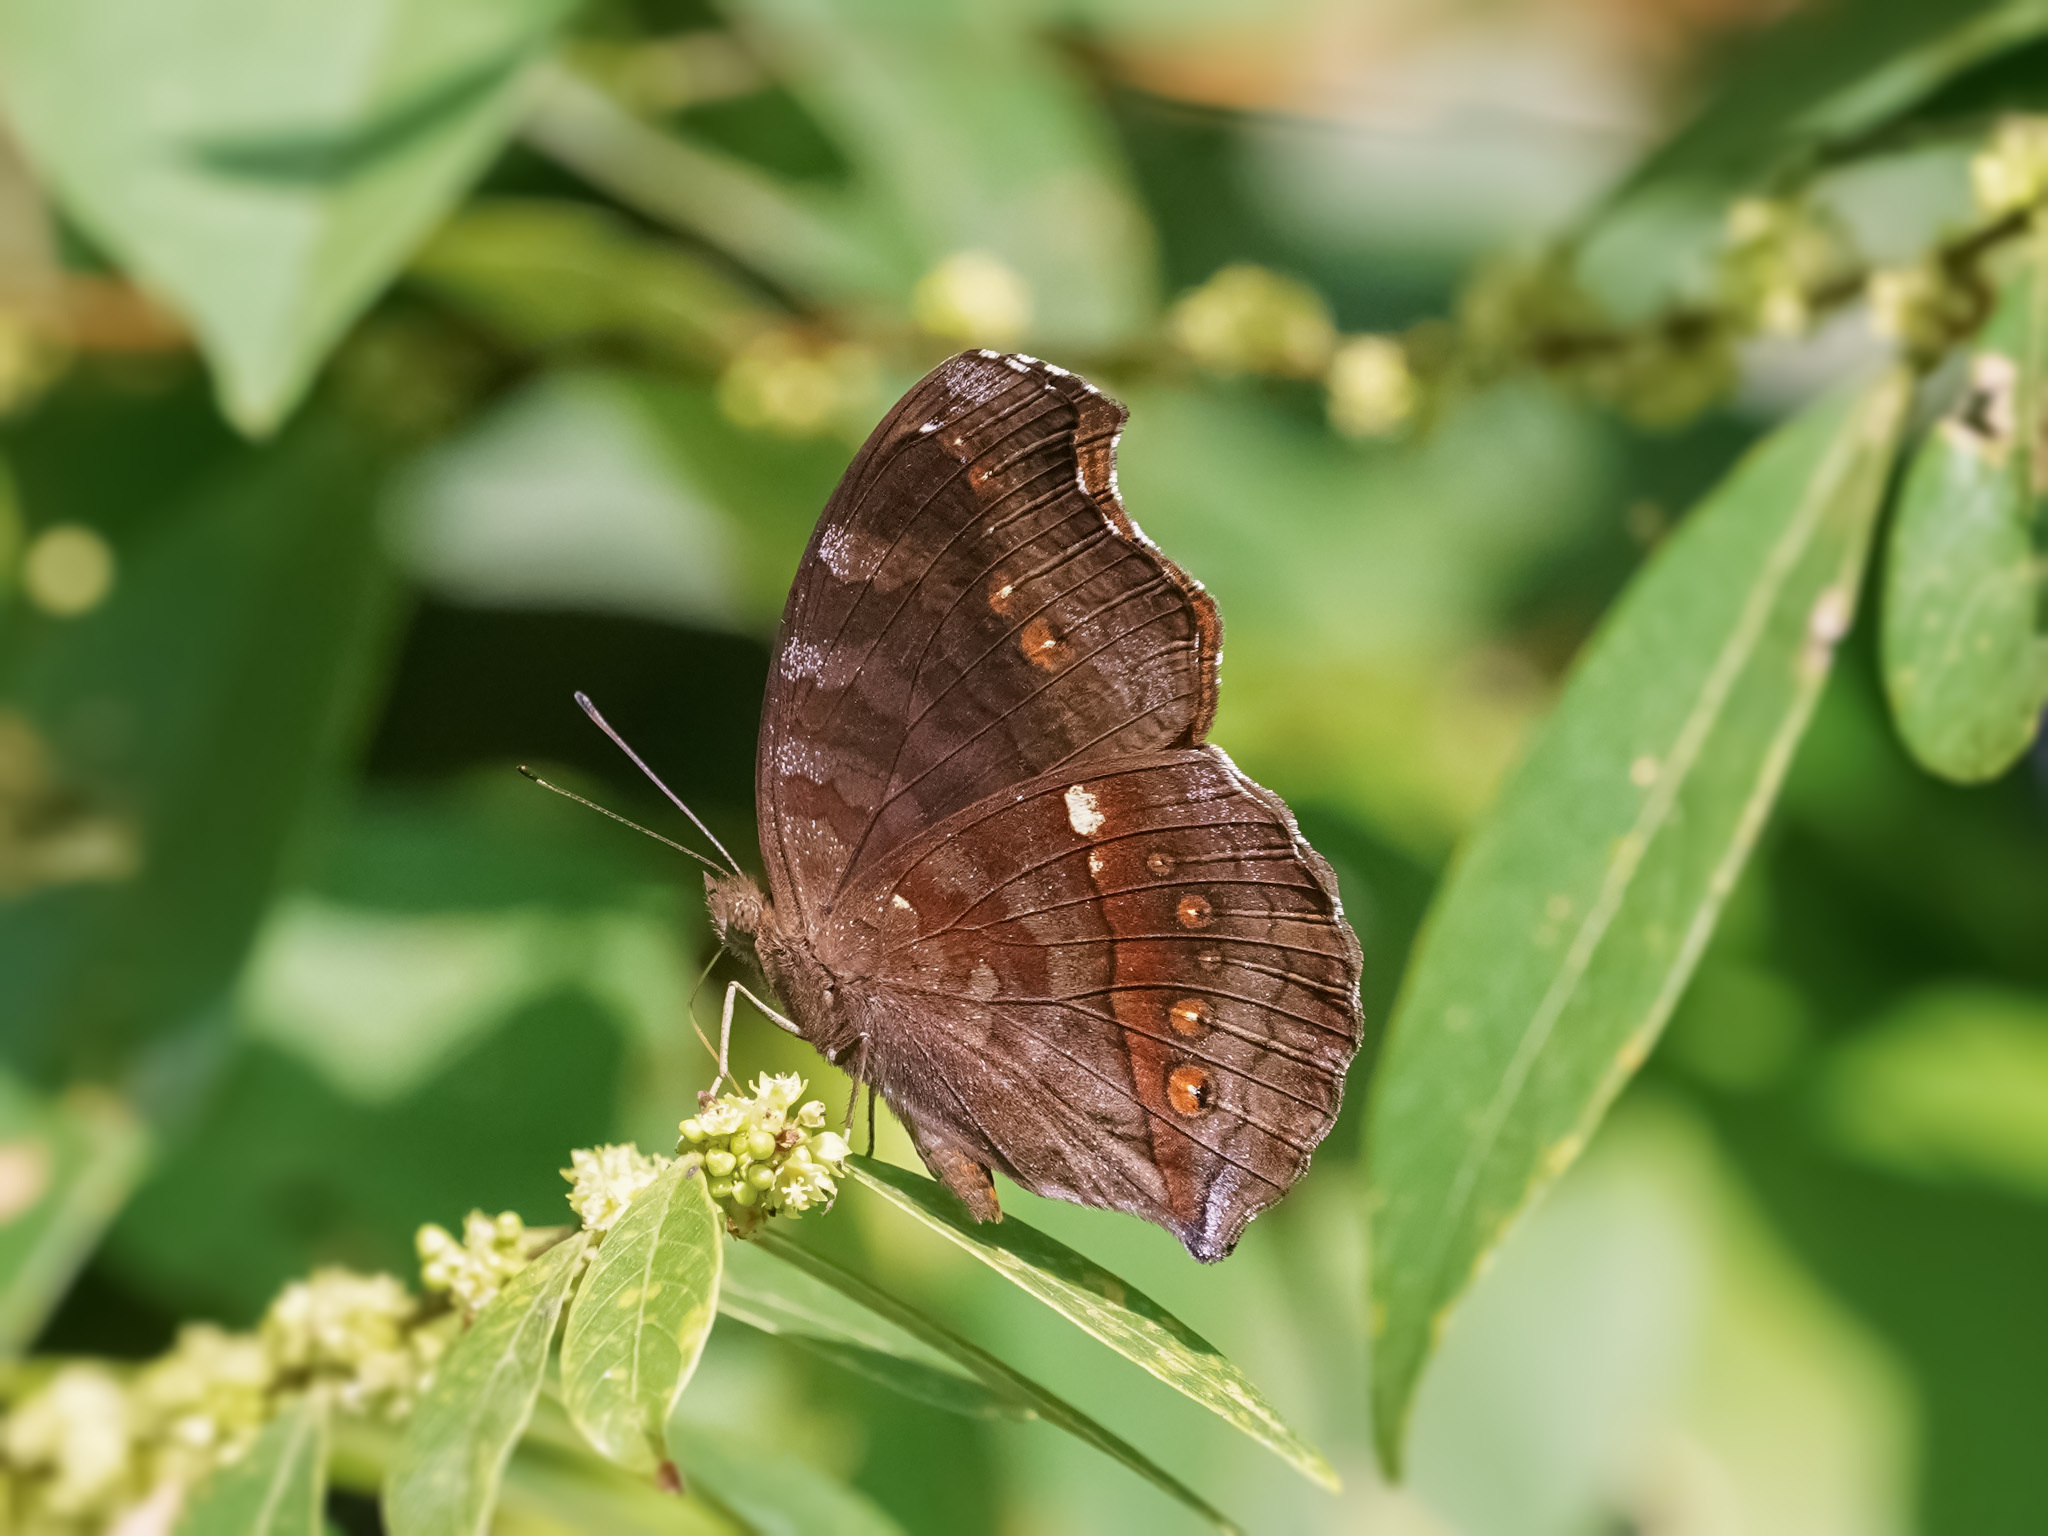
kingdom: Animalia
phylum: Arthropoda
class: Insecta
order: Lepidoptera
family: Nymphalidae
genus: Junonia
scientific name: Junonia hedonia
